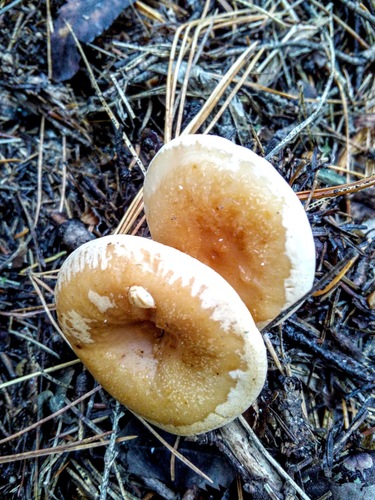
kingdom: Fungi
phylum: Basidiomycota
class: Agaricomycetes
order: Agaricales
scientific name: Agaricales
